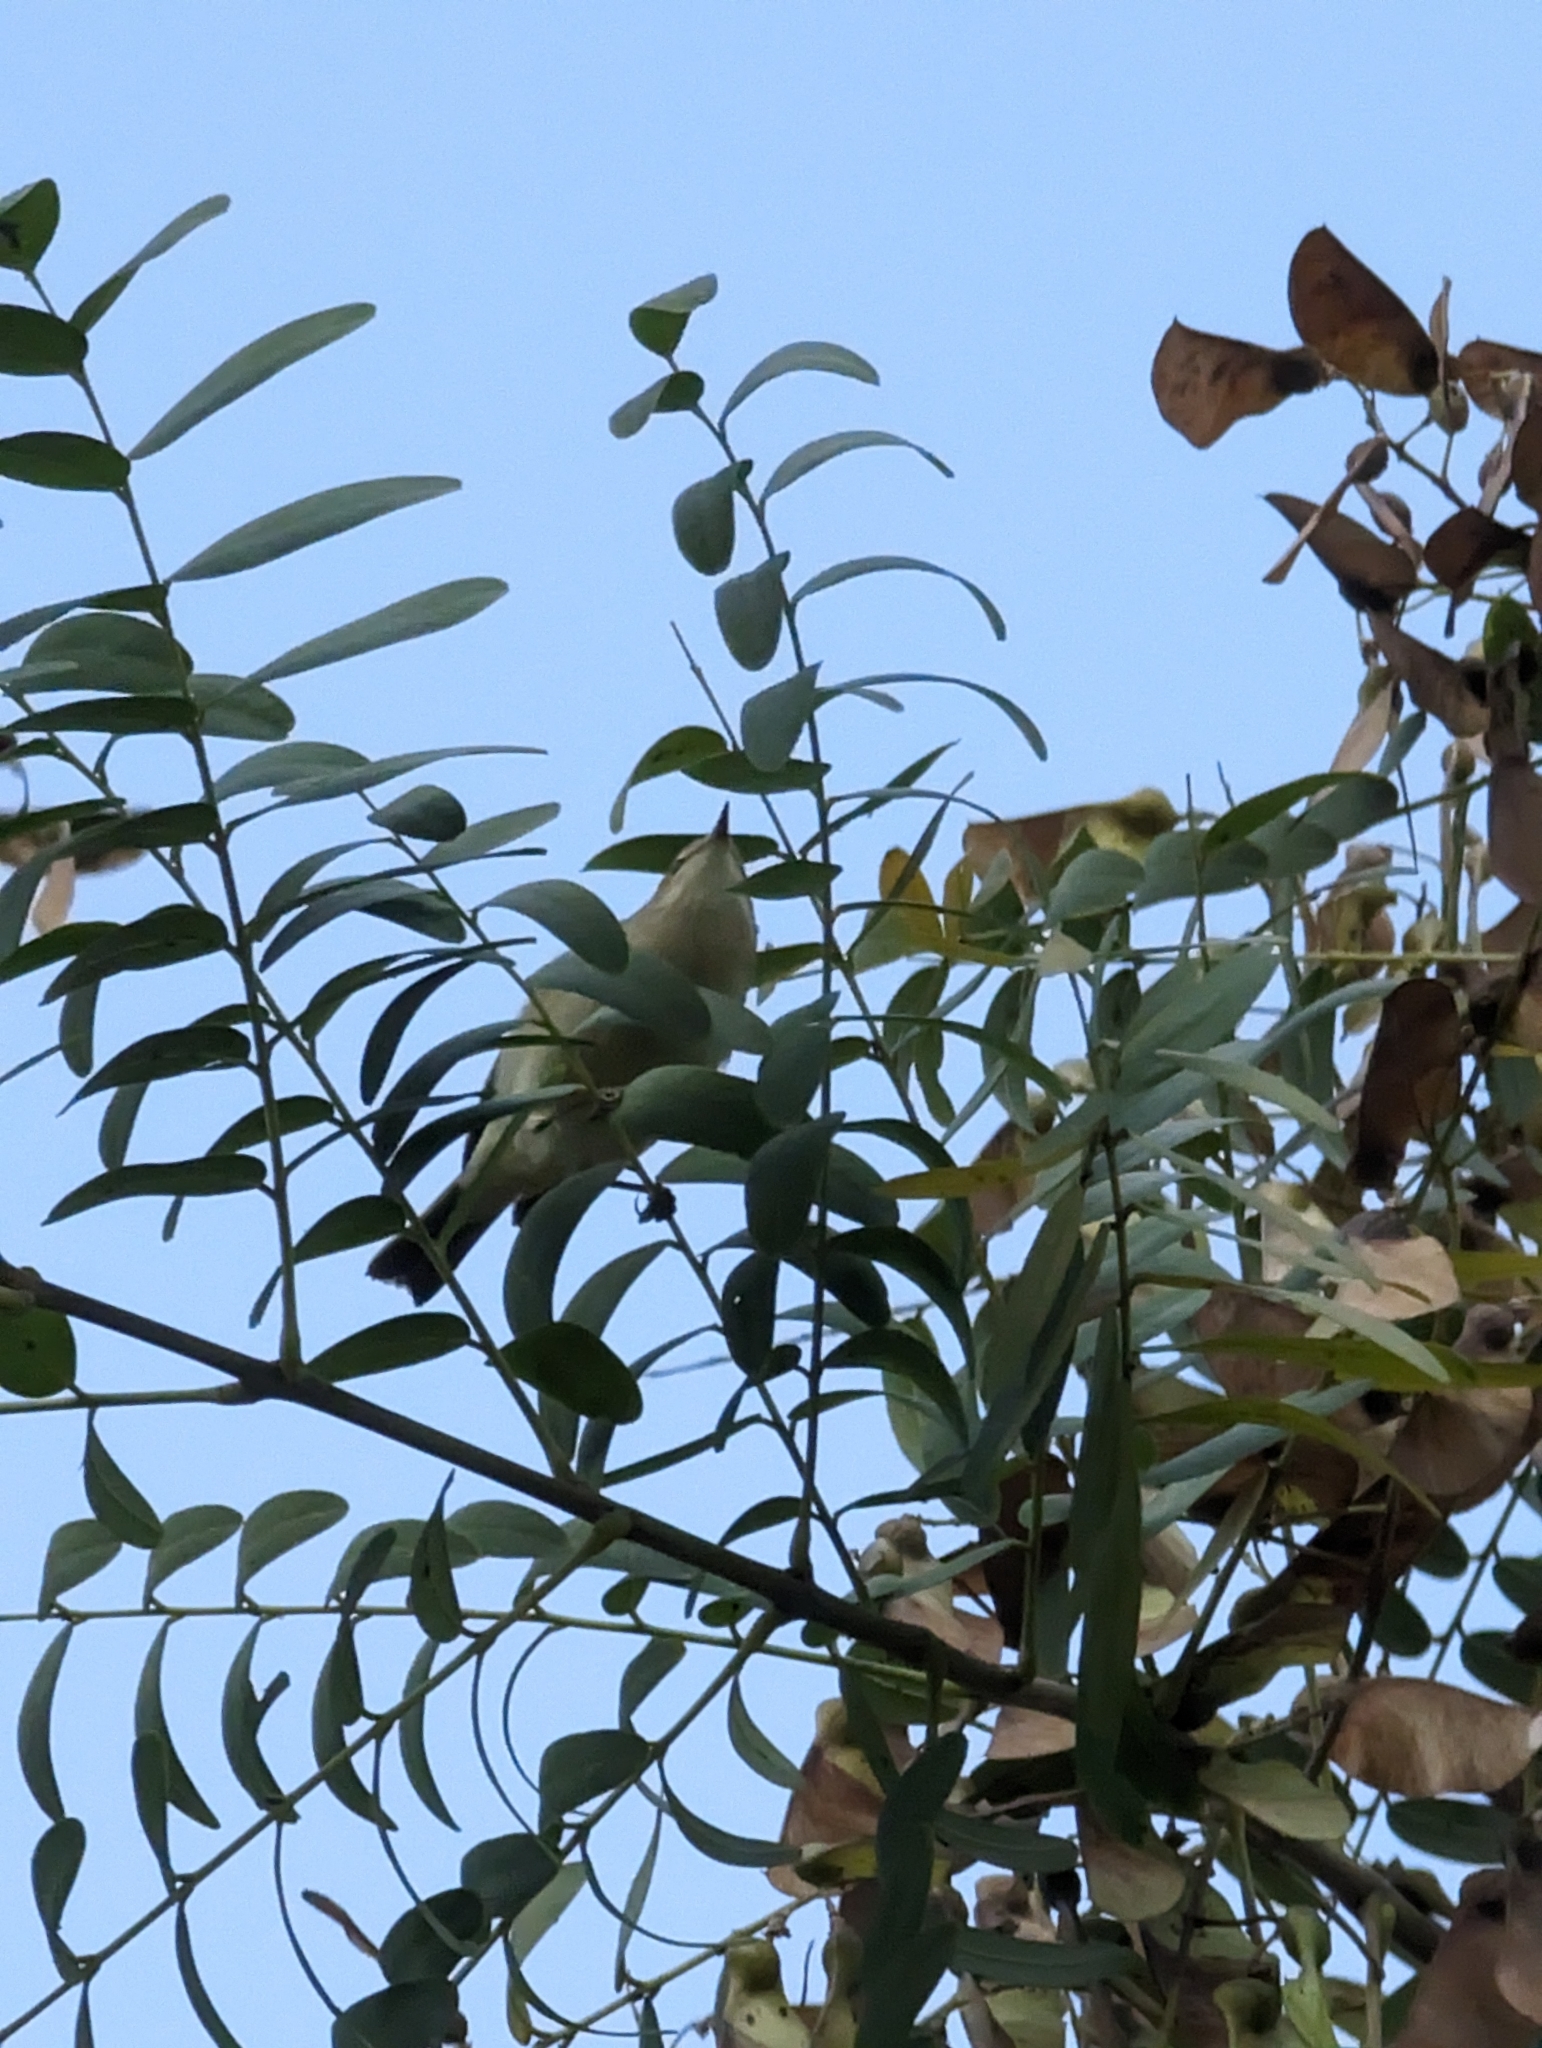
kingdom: Animalia
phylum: Chordata
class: Aves
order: Passeriformes
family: Phylloscopidae
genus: Phylloscopus
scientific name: Phylloscopus collybita
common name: Common chiffchaff
